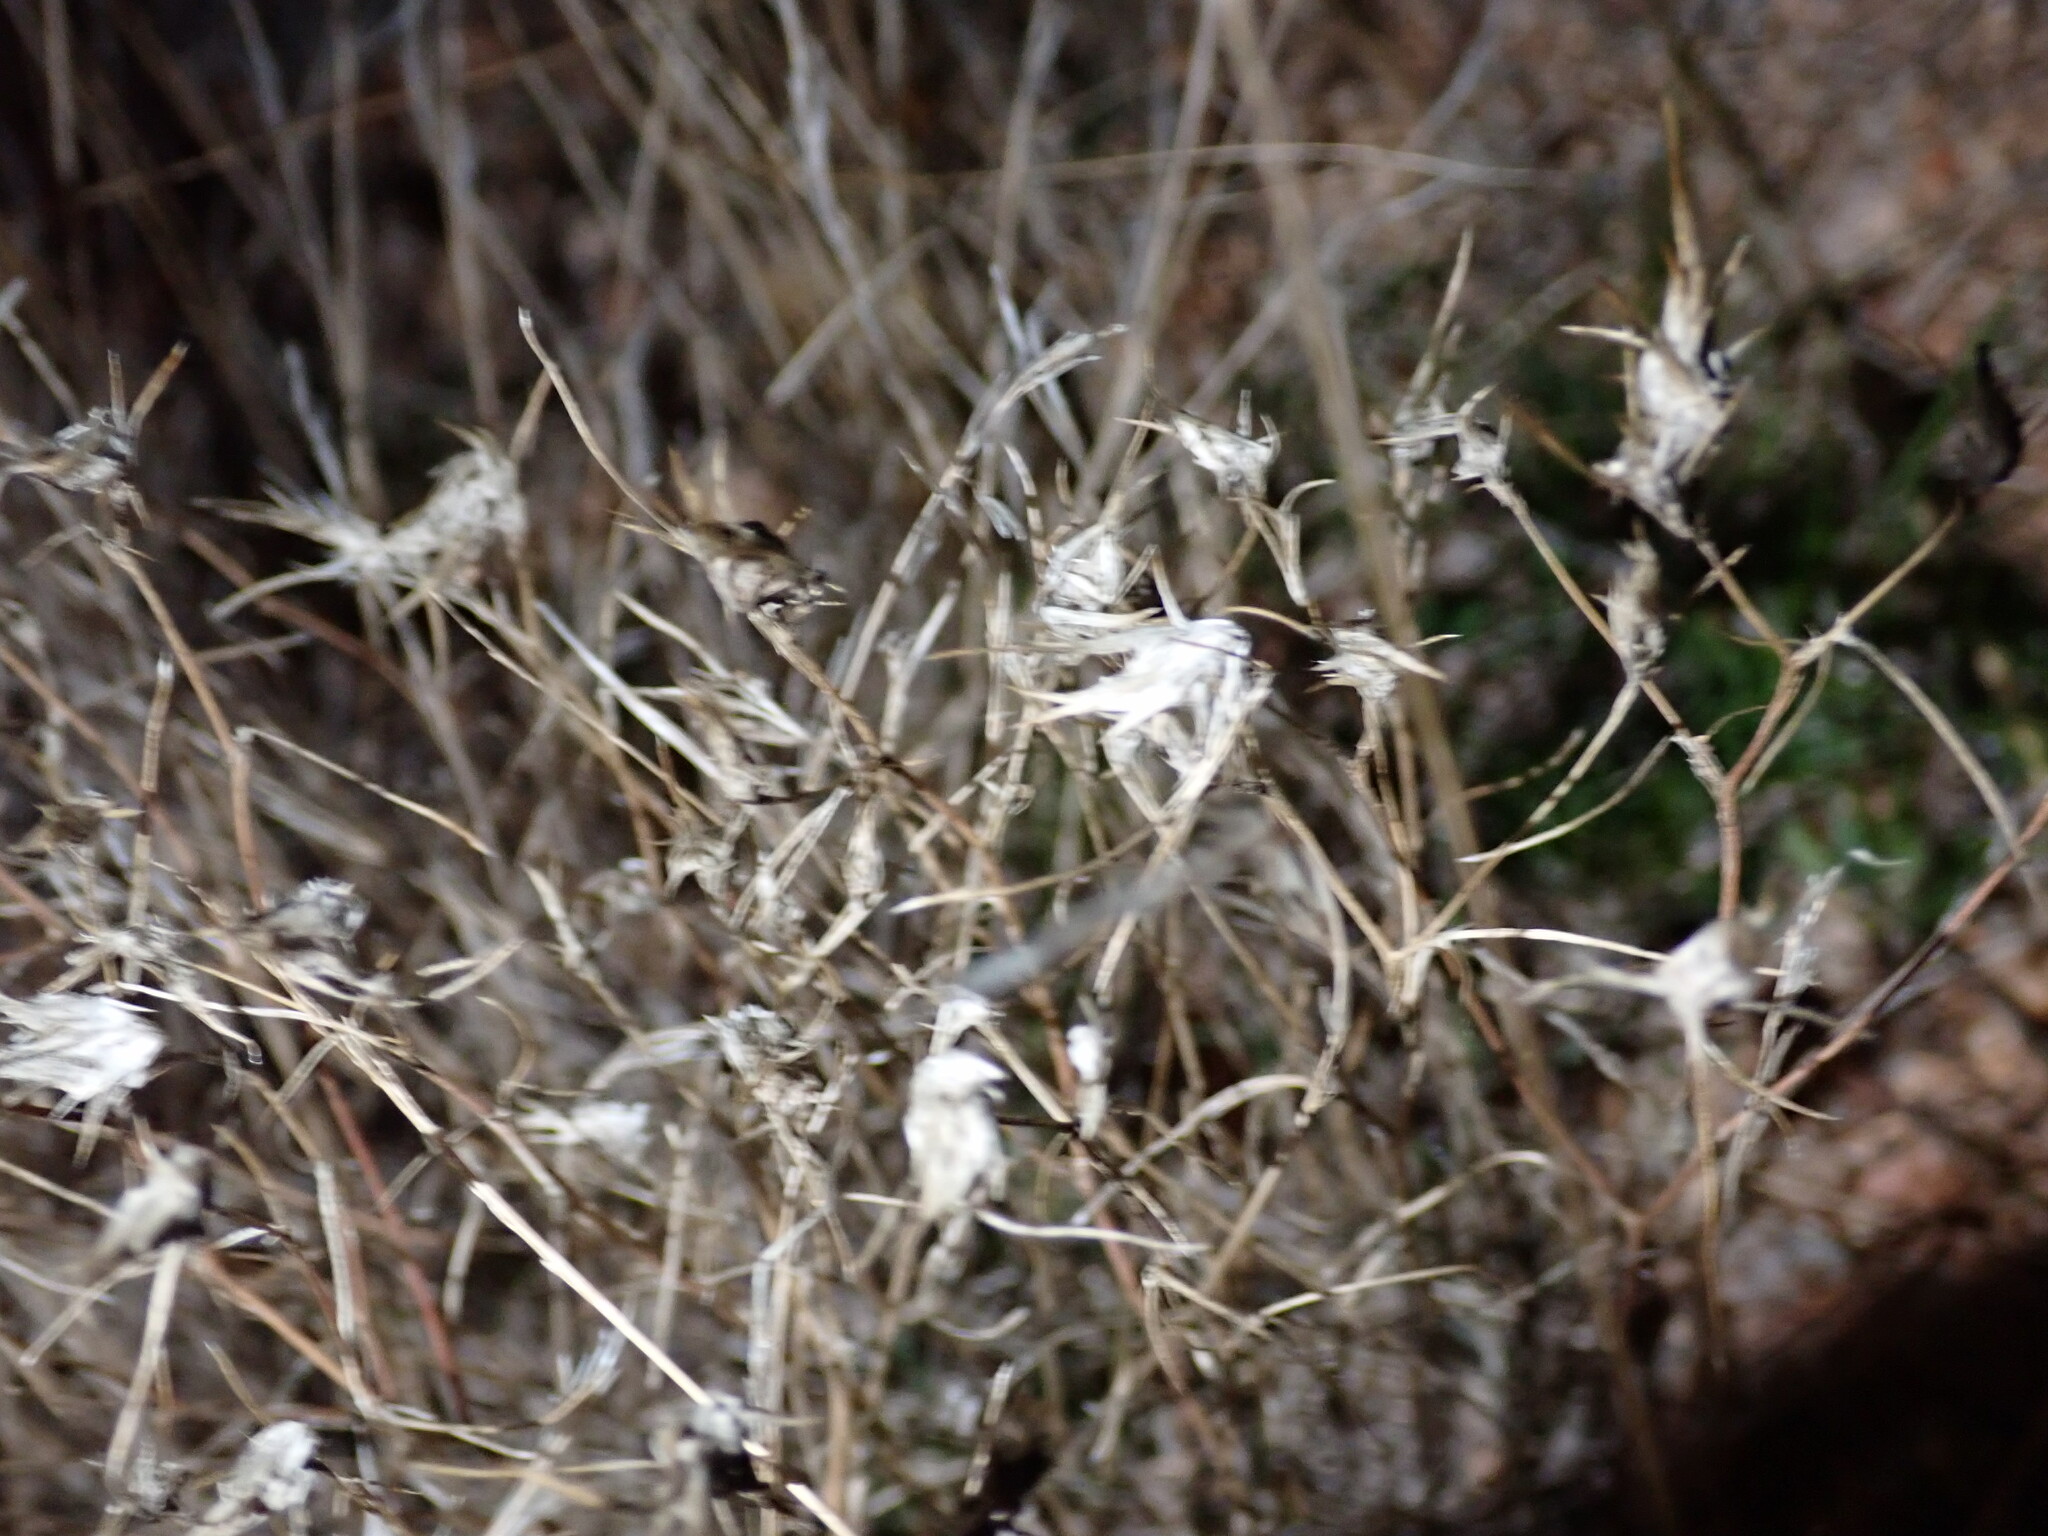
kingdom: Plantae
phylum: Tracheophyta
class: Magnoliopsida
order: Ericales
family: Polemoniaceae
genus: Eriastrum
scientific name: Eriastrum eremicum
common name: Desert eriastrum
